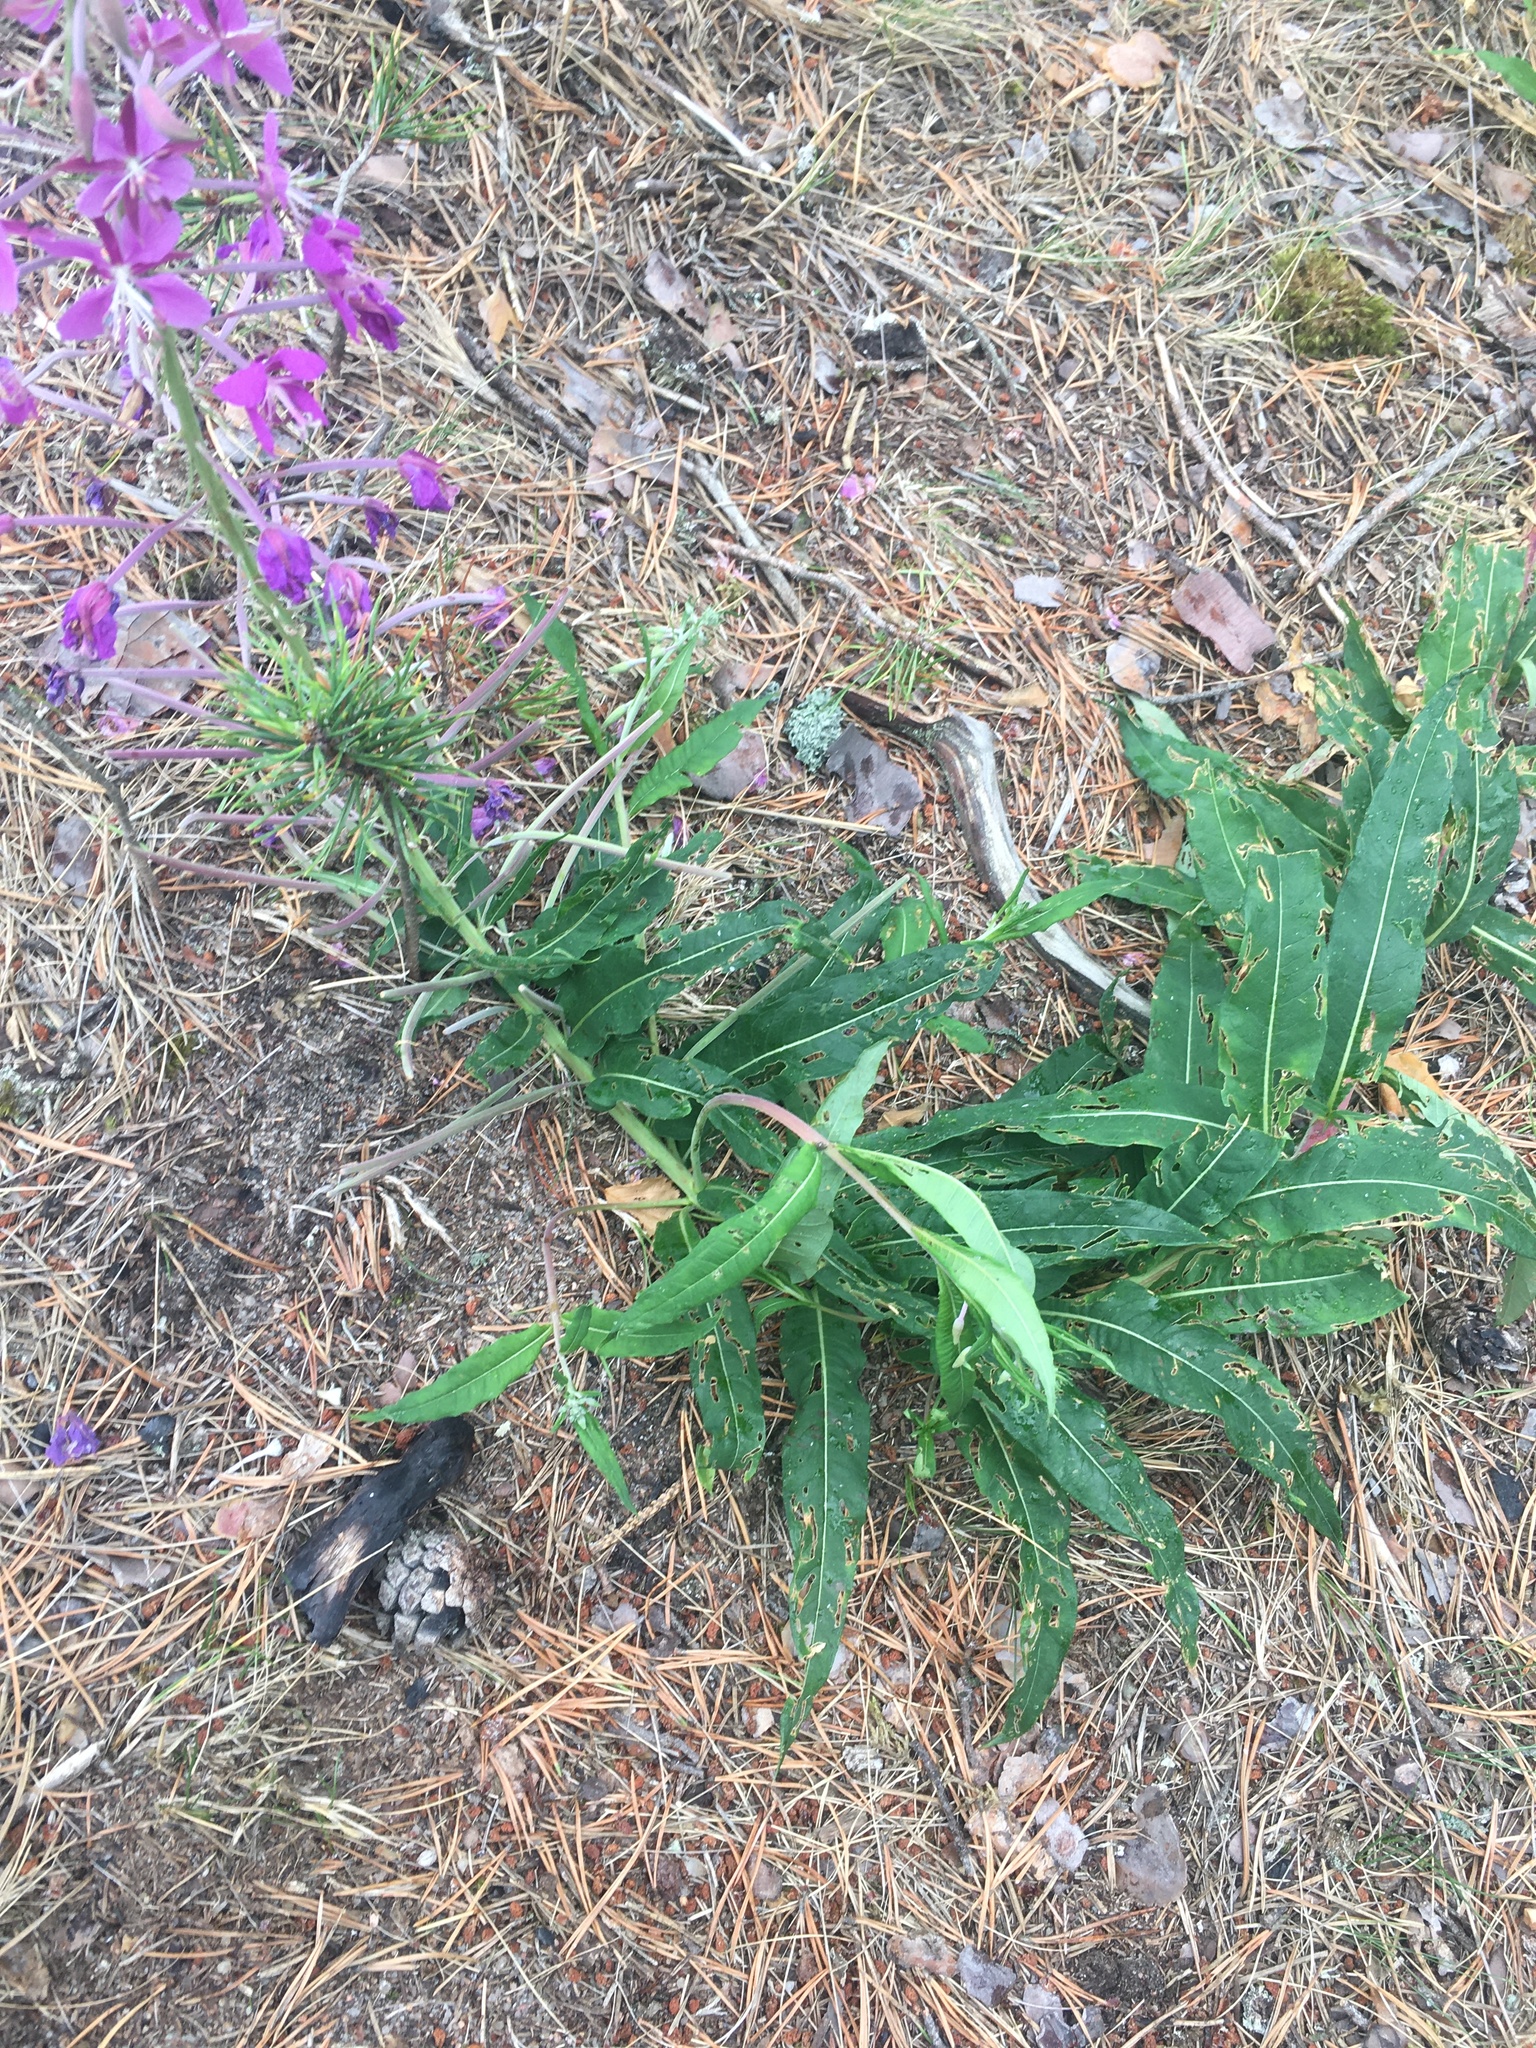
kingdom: Plantae
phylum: Tracheophyta
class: Magnoliopsida
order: Myrtales
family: Onagraceae
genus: Chamaenerion
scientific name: Chamaenerion angustifolium
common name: Fireweed
